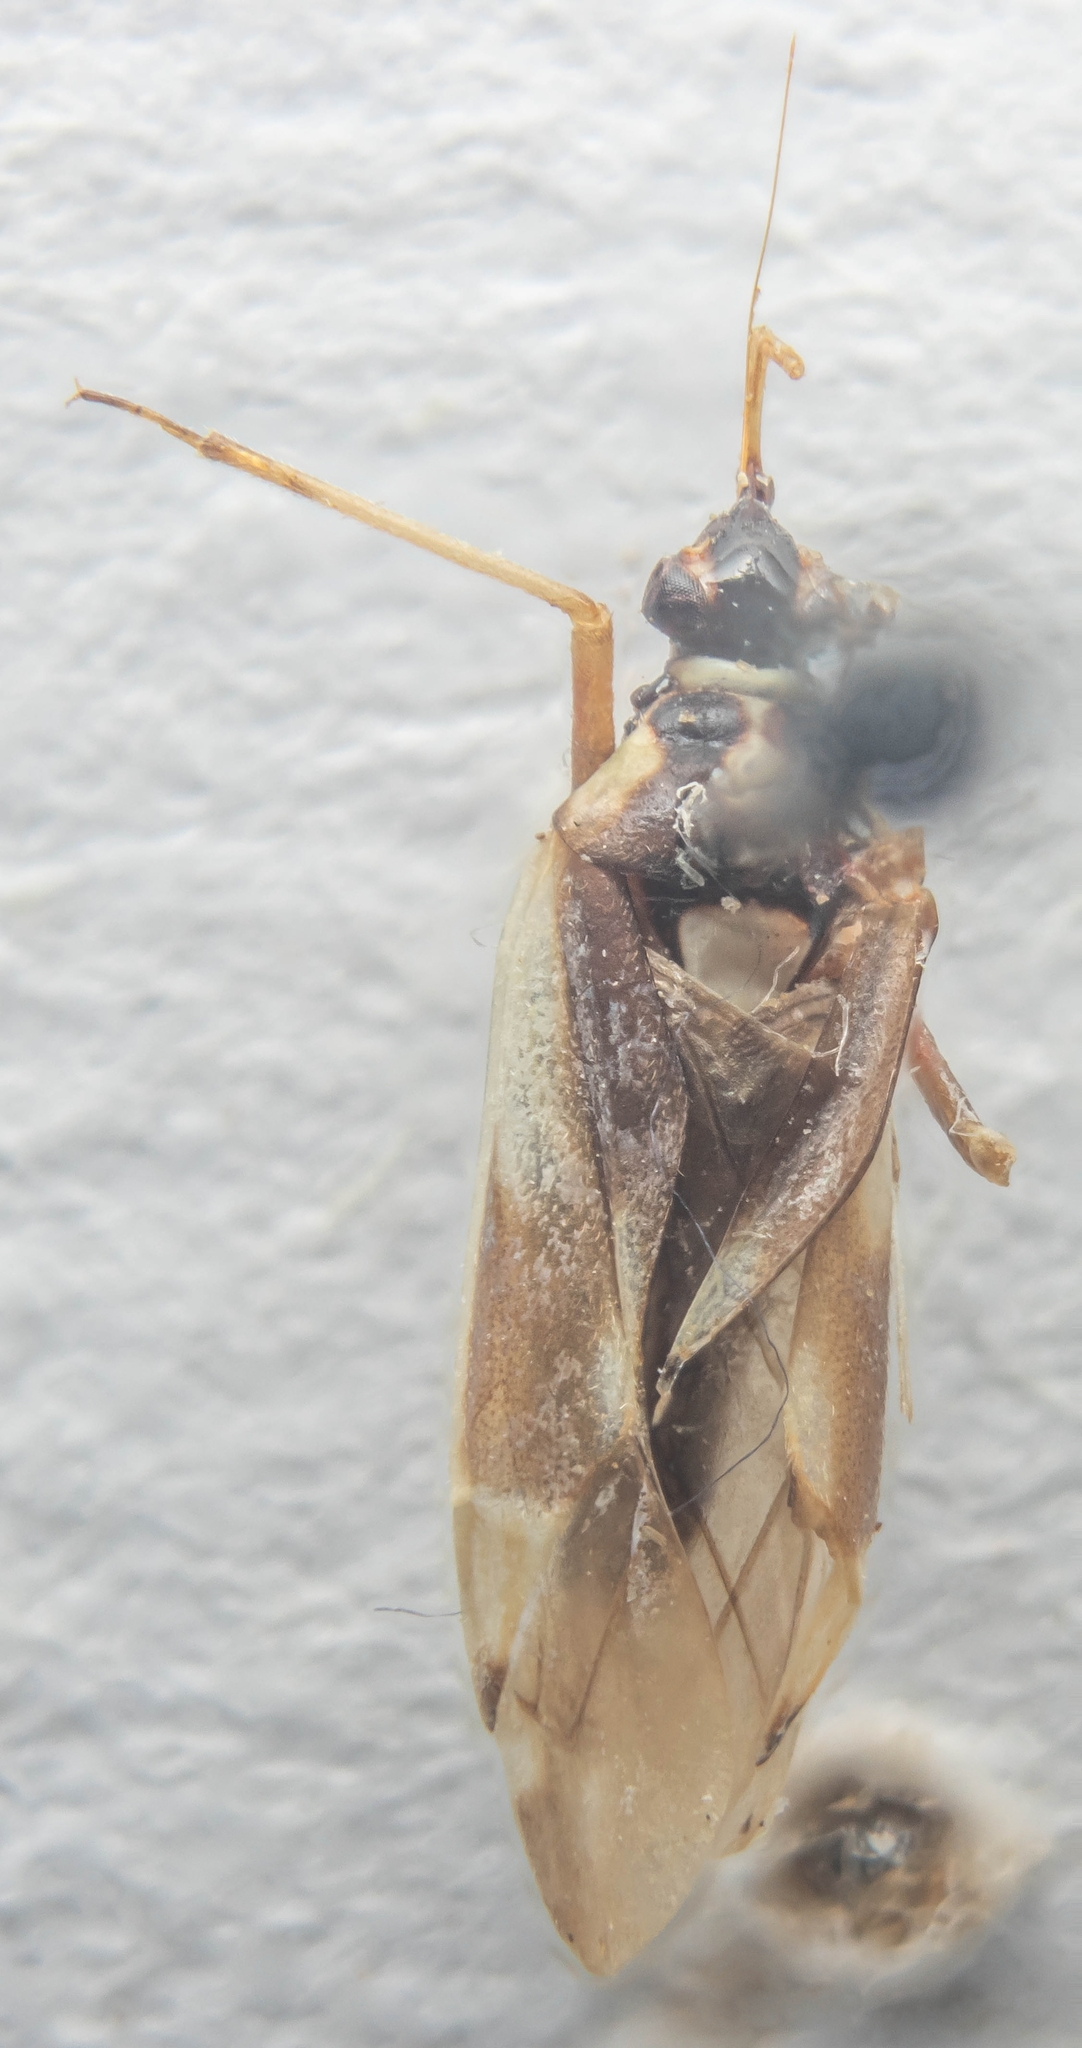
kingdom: Animalia
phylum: Arthropoda
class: Insecta
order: Hemiptera
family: Miridae
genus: Stenotus
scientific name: Stenotus binotatus
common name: Plant bug
